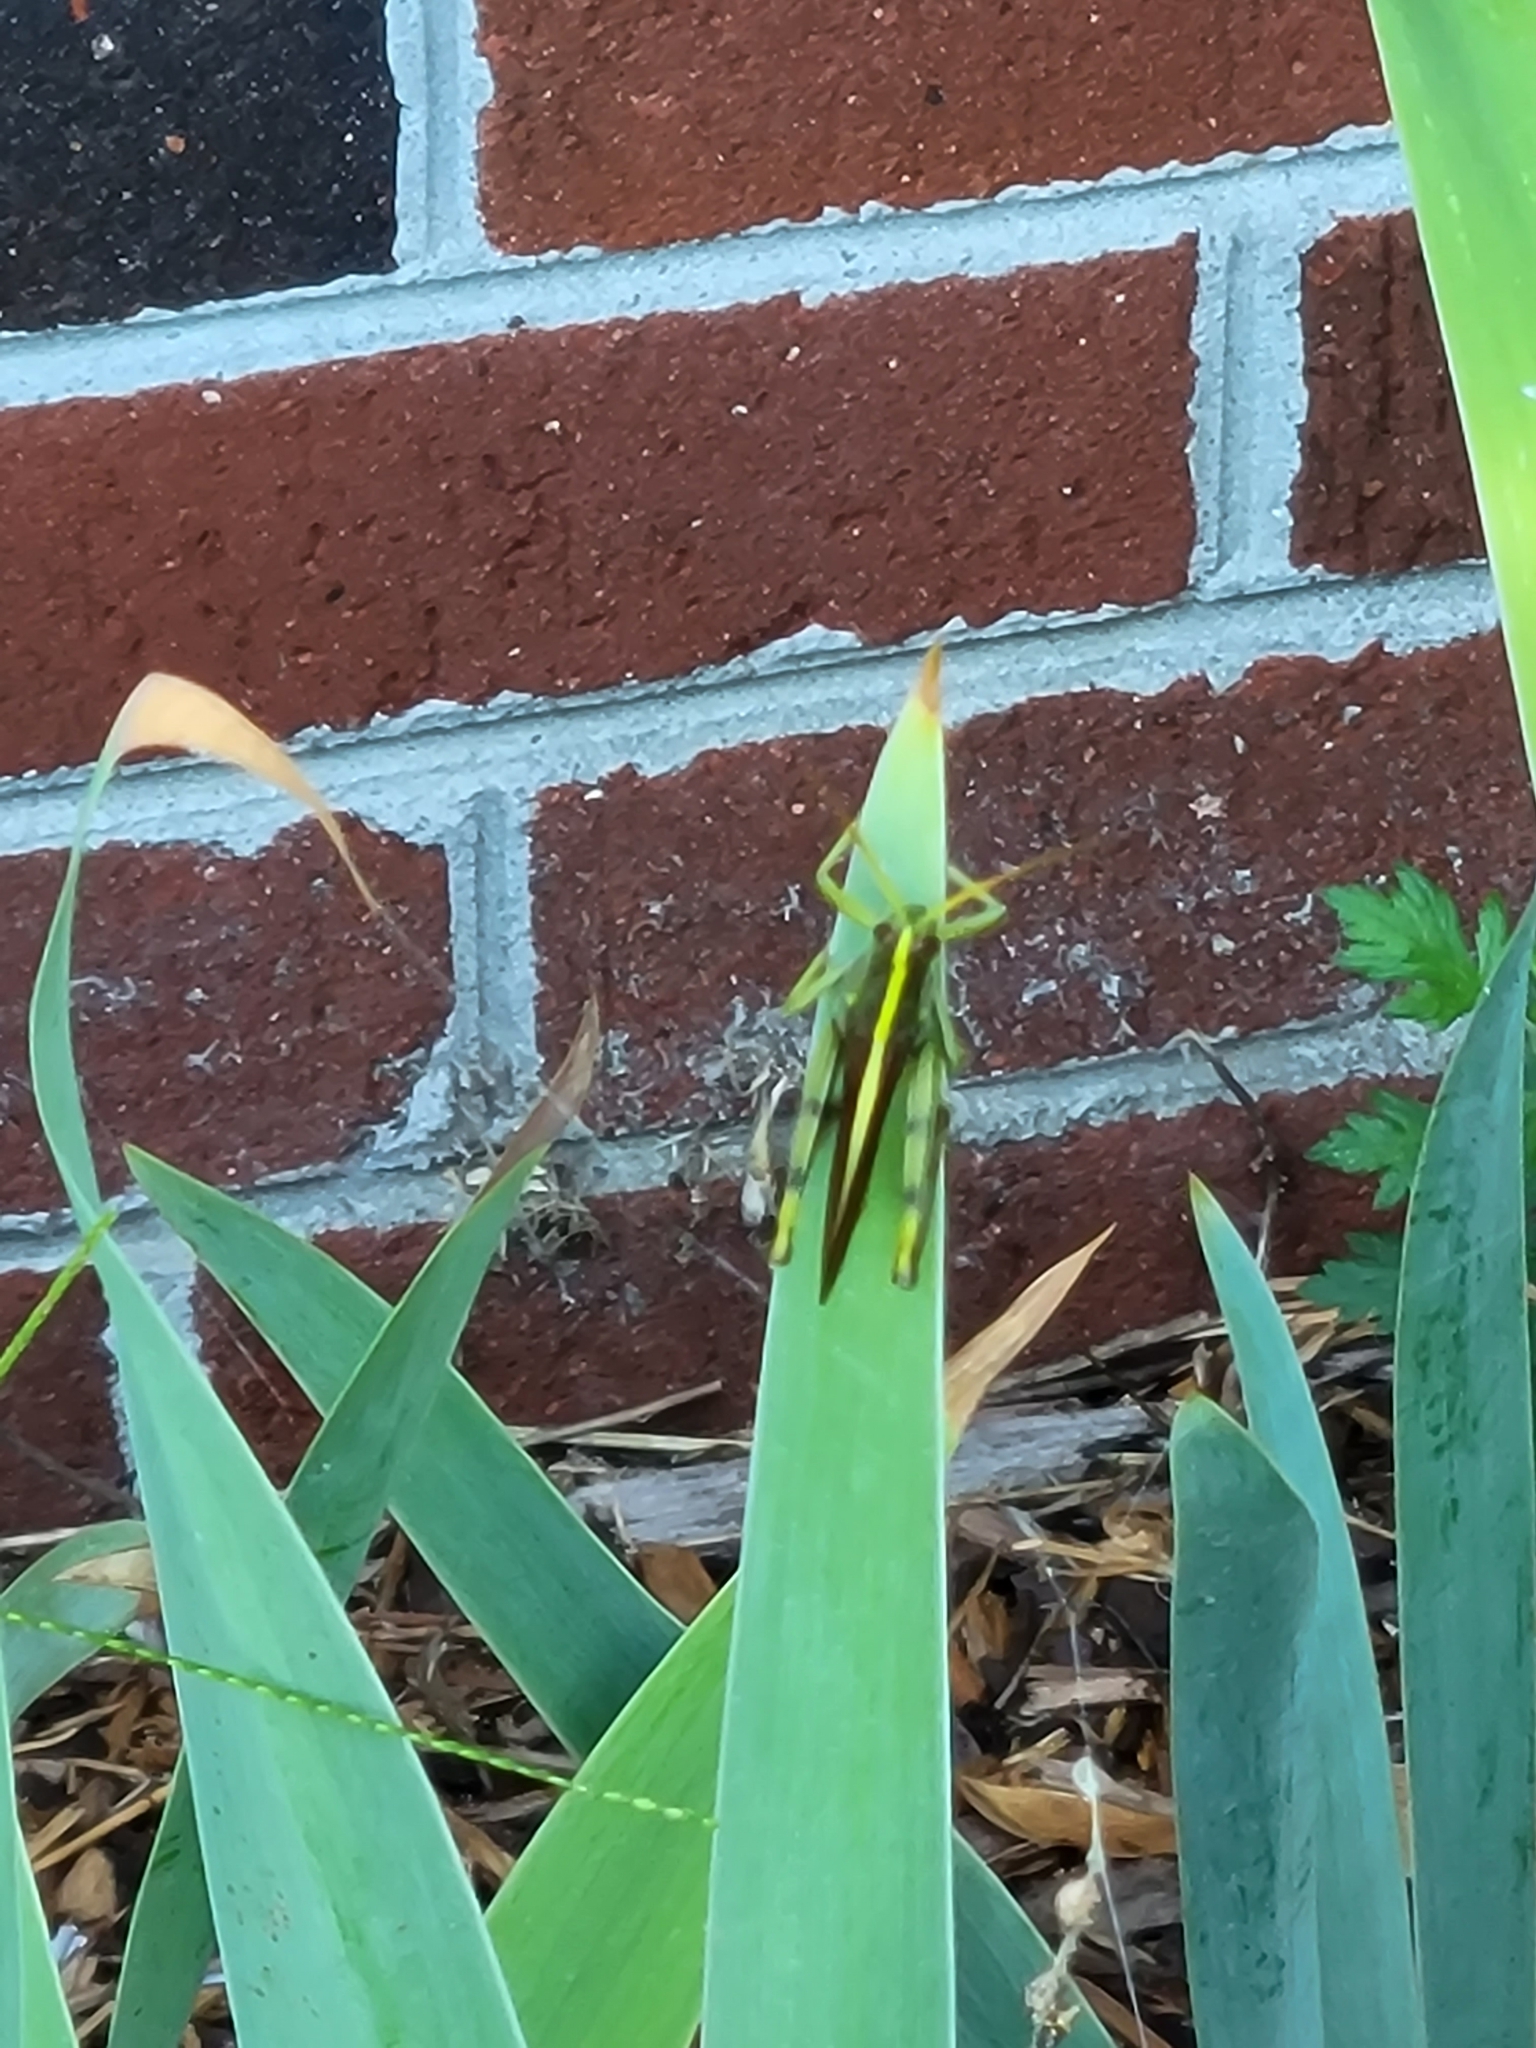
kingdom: Animalia
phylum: Arthropoda
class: Insecta
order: Orthoptera
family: Acrididae
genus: Schistocerca
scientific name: Schistocerca obscura
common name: Obscure bird grasshopper
